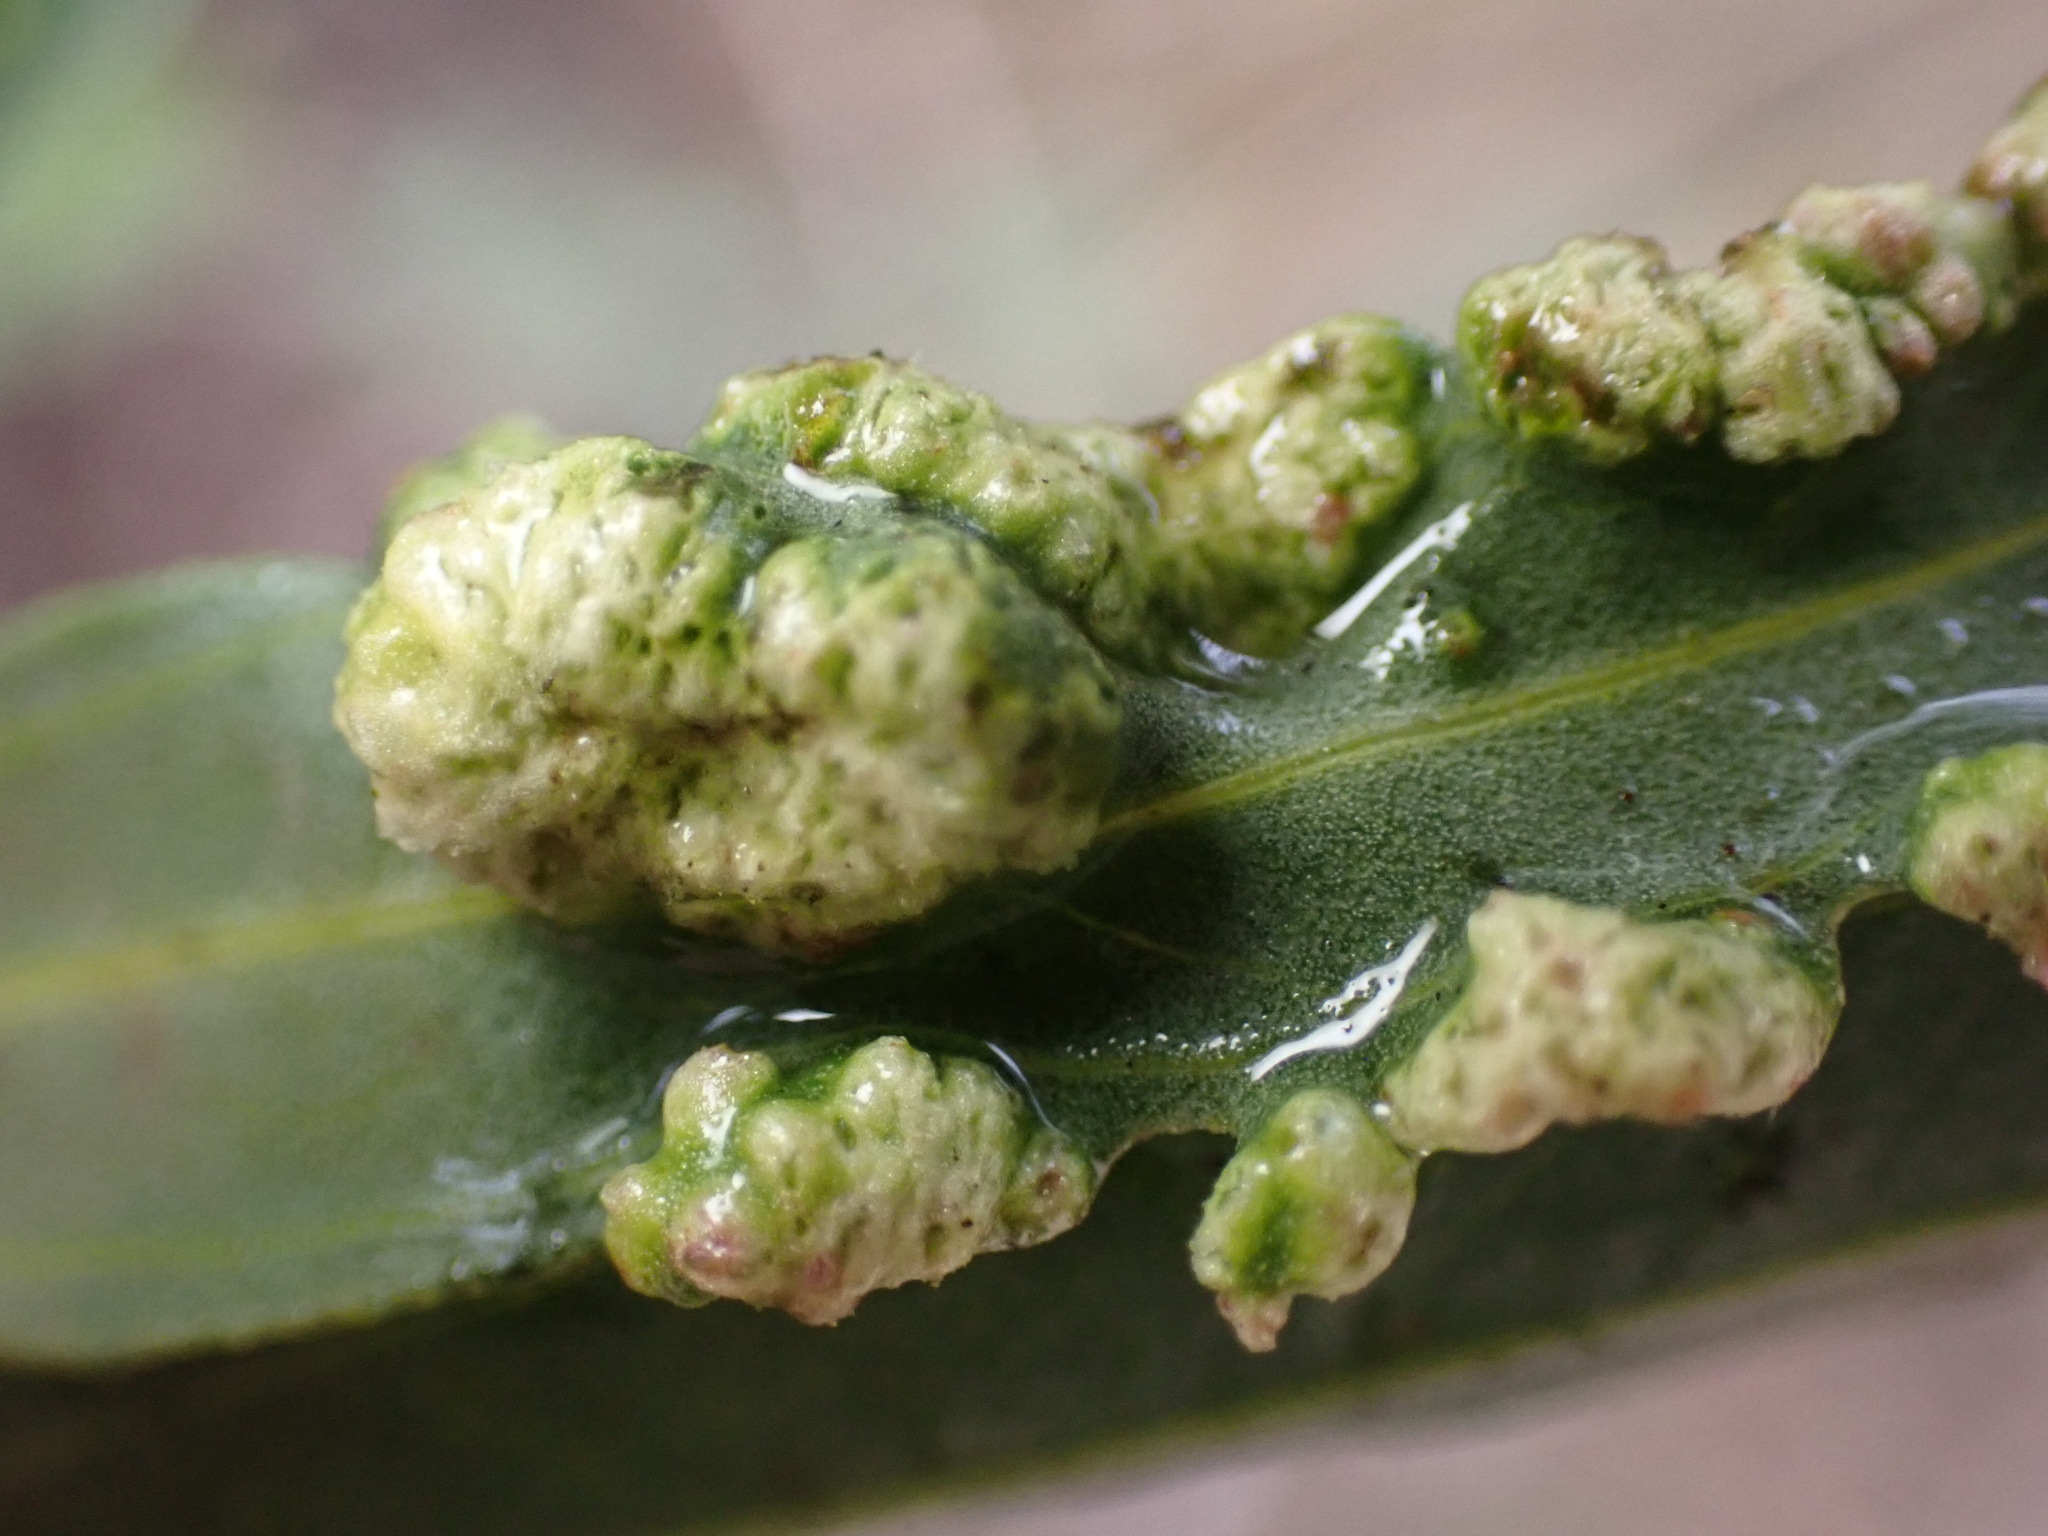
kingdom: Animalia
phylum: Arthropoda
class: Arachnida
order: Trombidiformes
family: Eriophyidae
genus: Aceria
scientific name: Aceria
